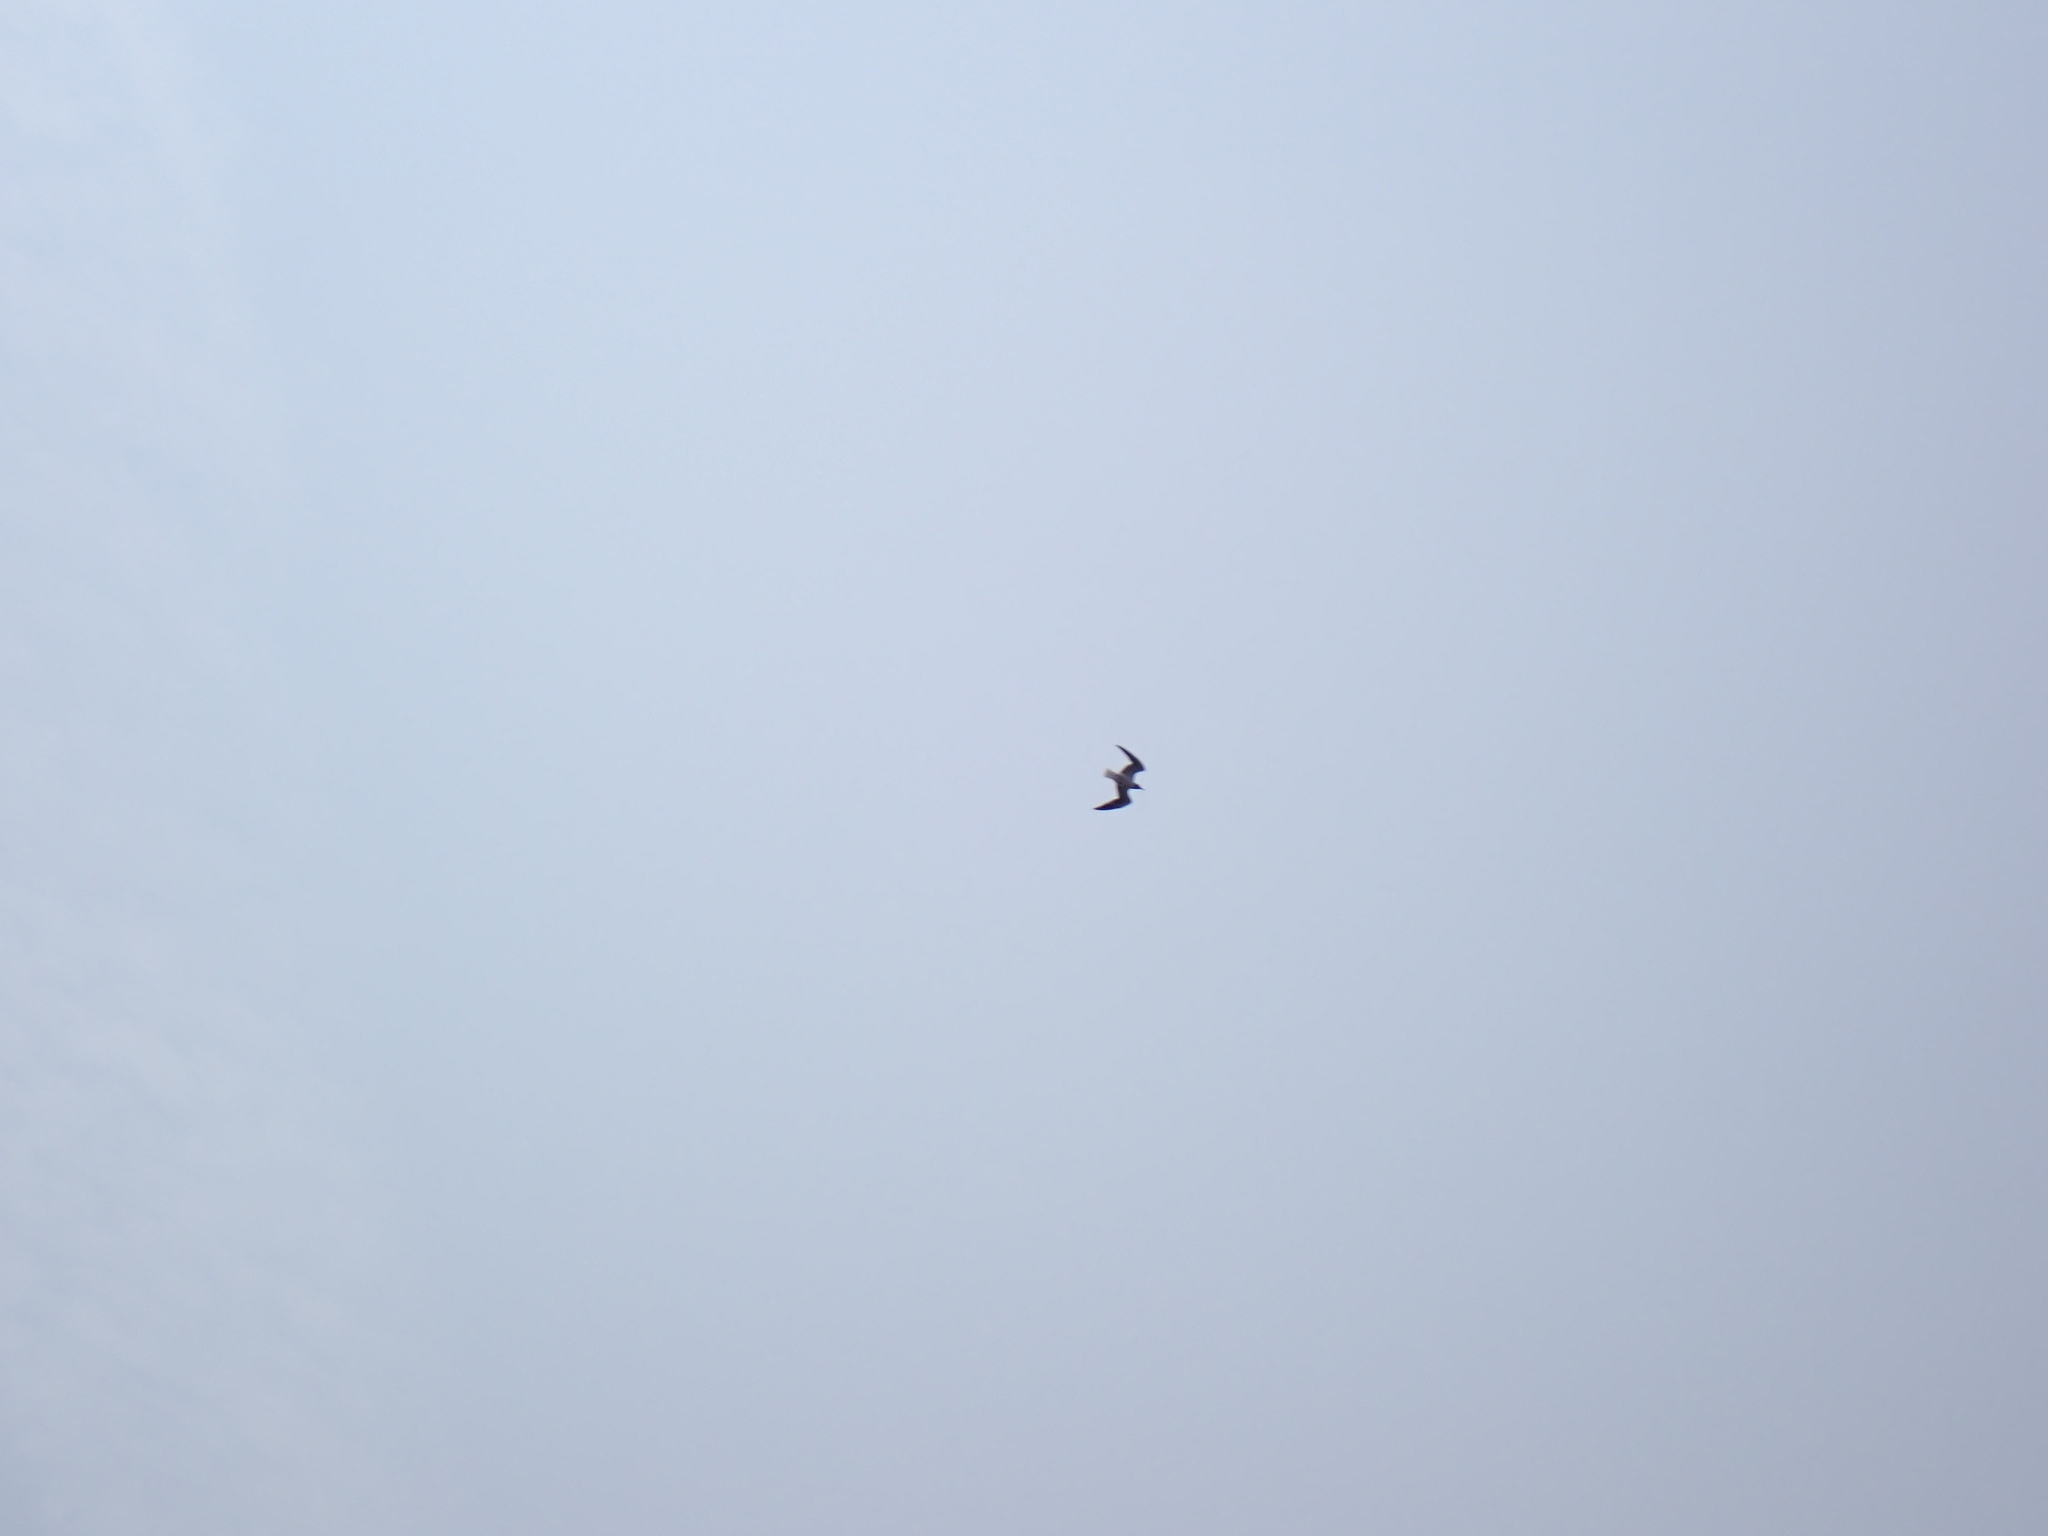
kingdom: Animalia
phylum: Chordata
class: Aves
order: Charadriiformes
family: Laridae
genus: Leucophaeus
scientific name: Leucophaeus atricilla
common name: Laughing gull
